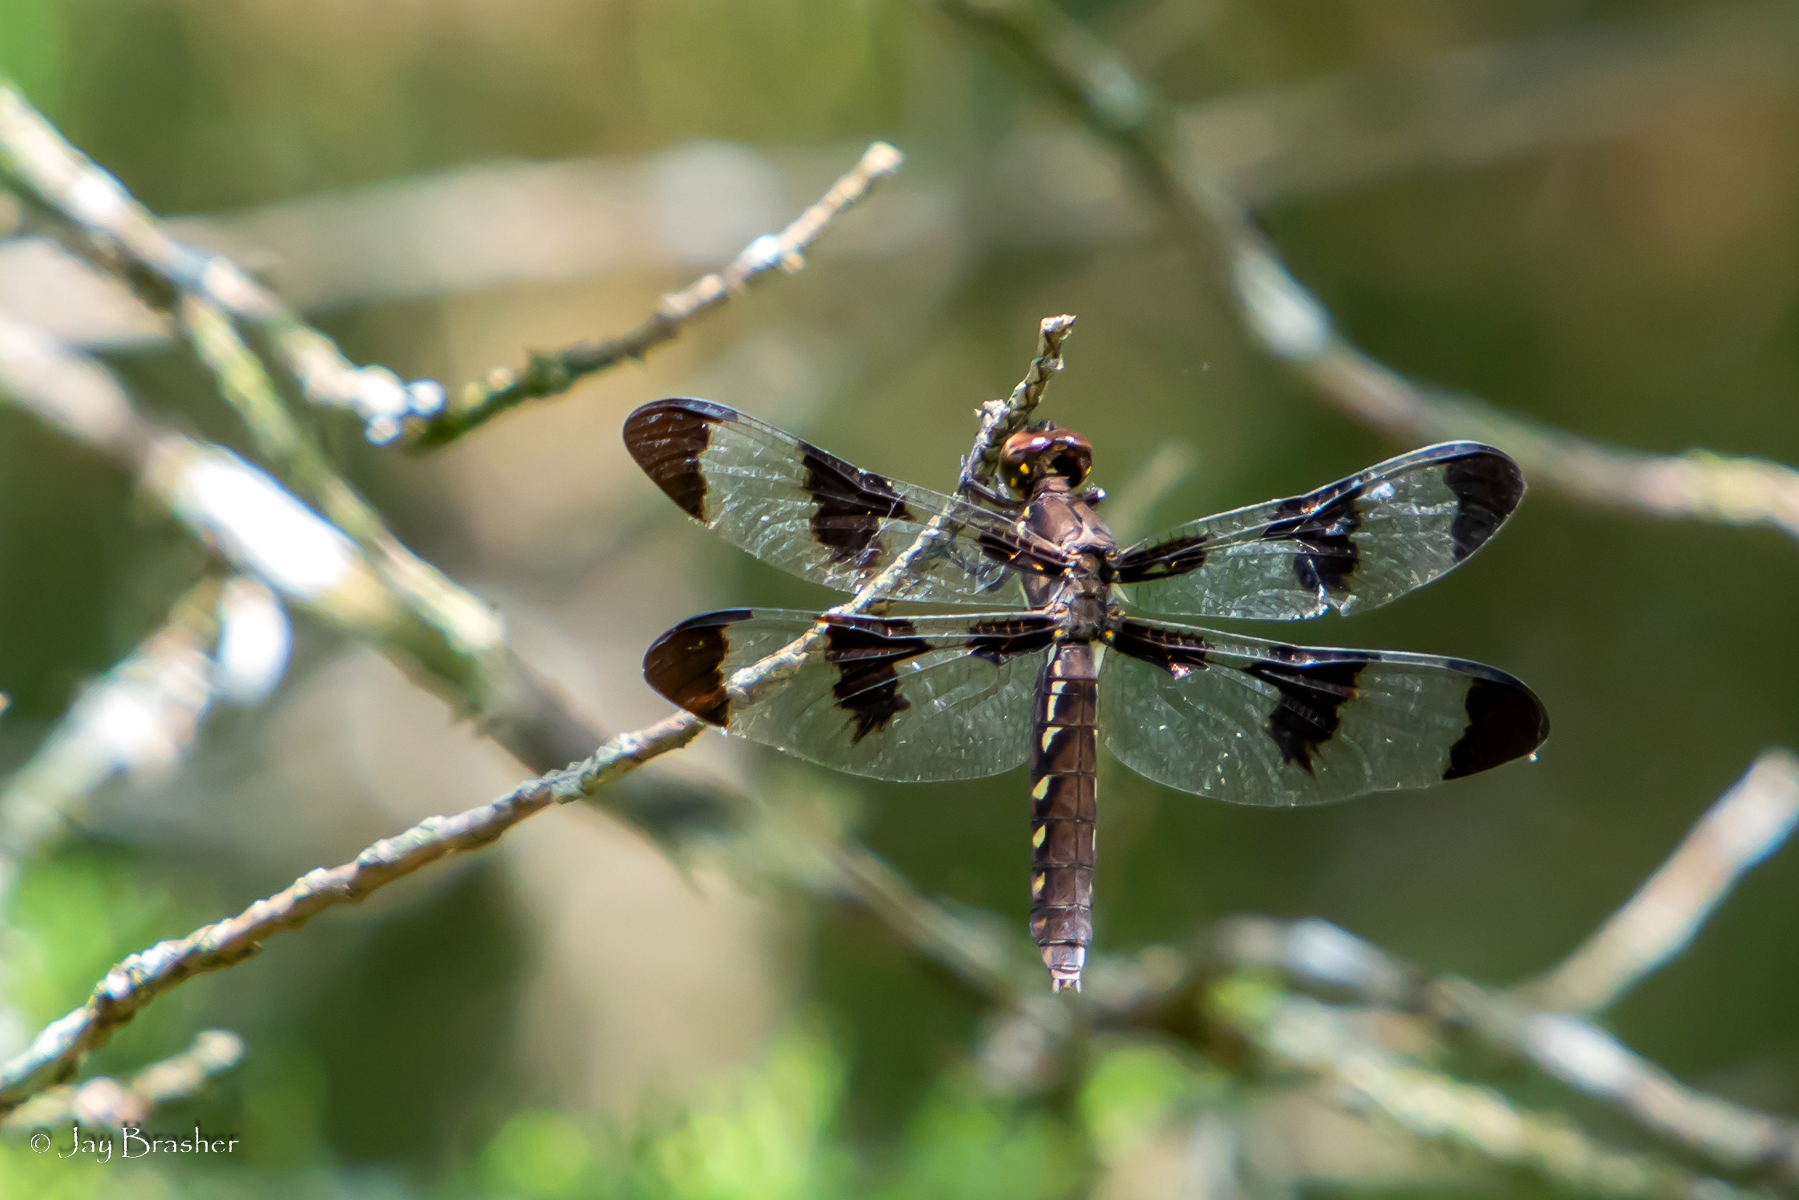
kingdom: Animalia
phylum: Arthropoda
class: Insecta
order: Odonata
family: Libellulidae
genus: Plathemis
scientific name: Plathemis lydia
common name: Common whitetail
